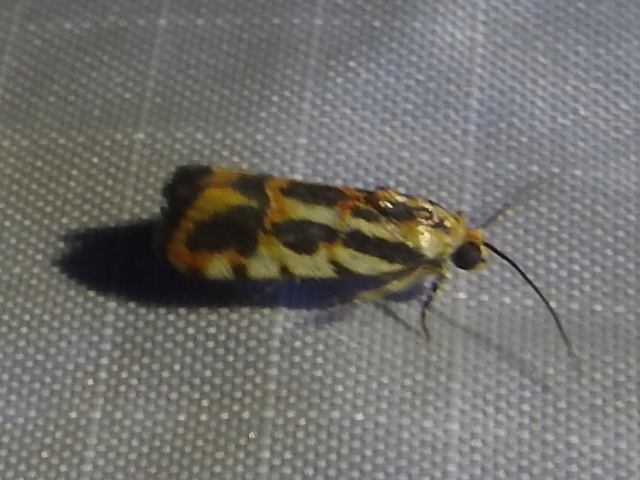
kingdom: Animalia
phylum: Arthropoda
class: Insecta
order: Lepidoptera
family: Noctuidae
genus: Acontia
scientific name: Acontia leo
